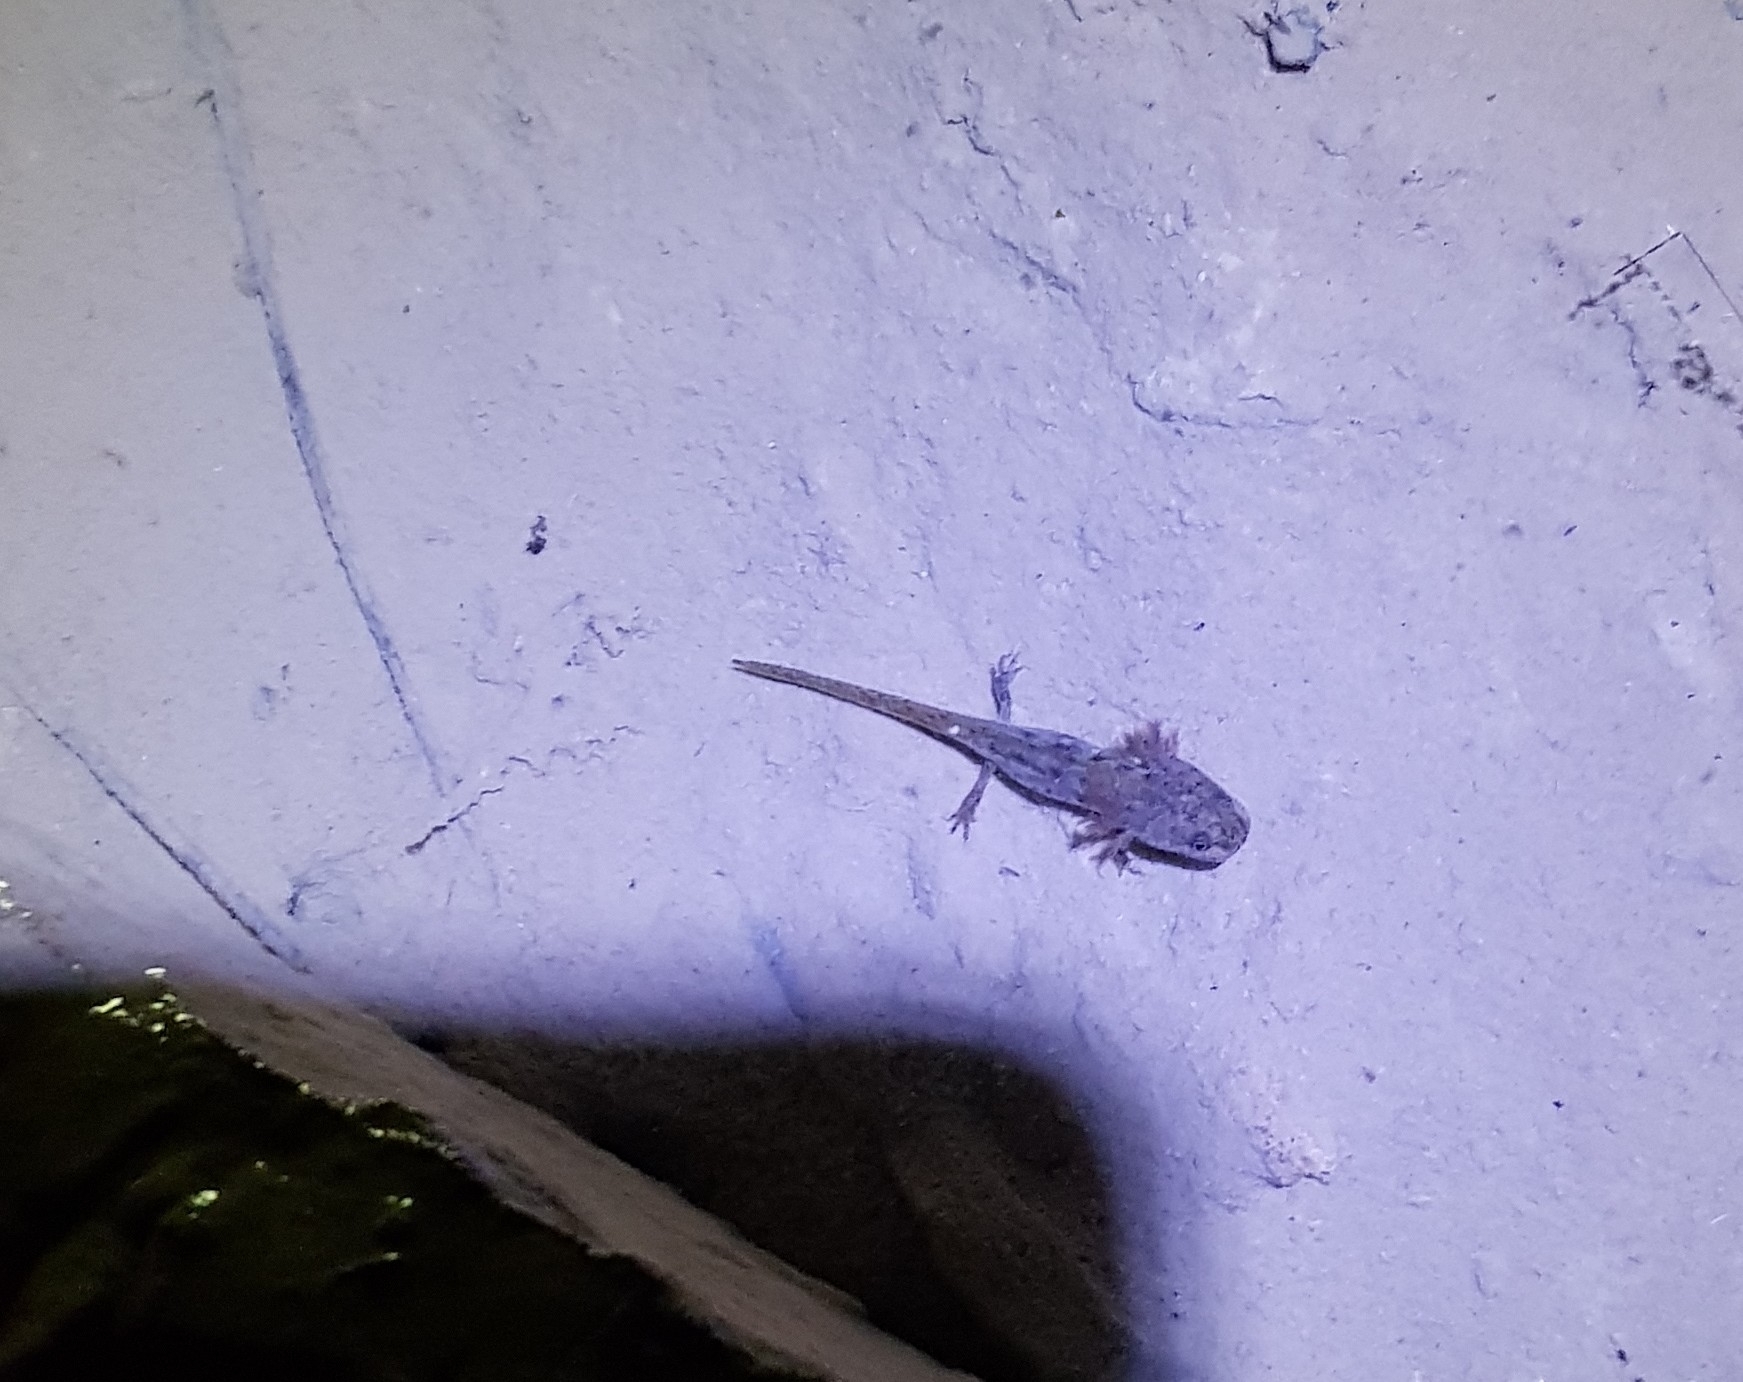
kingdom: Animalia
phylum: Chordata
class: Amphibia
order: Caudata
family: Salamandridae
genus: Triturus
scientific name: Triturus cristatus
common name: Crested newt
